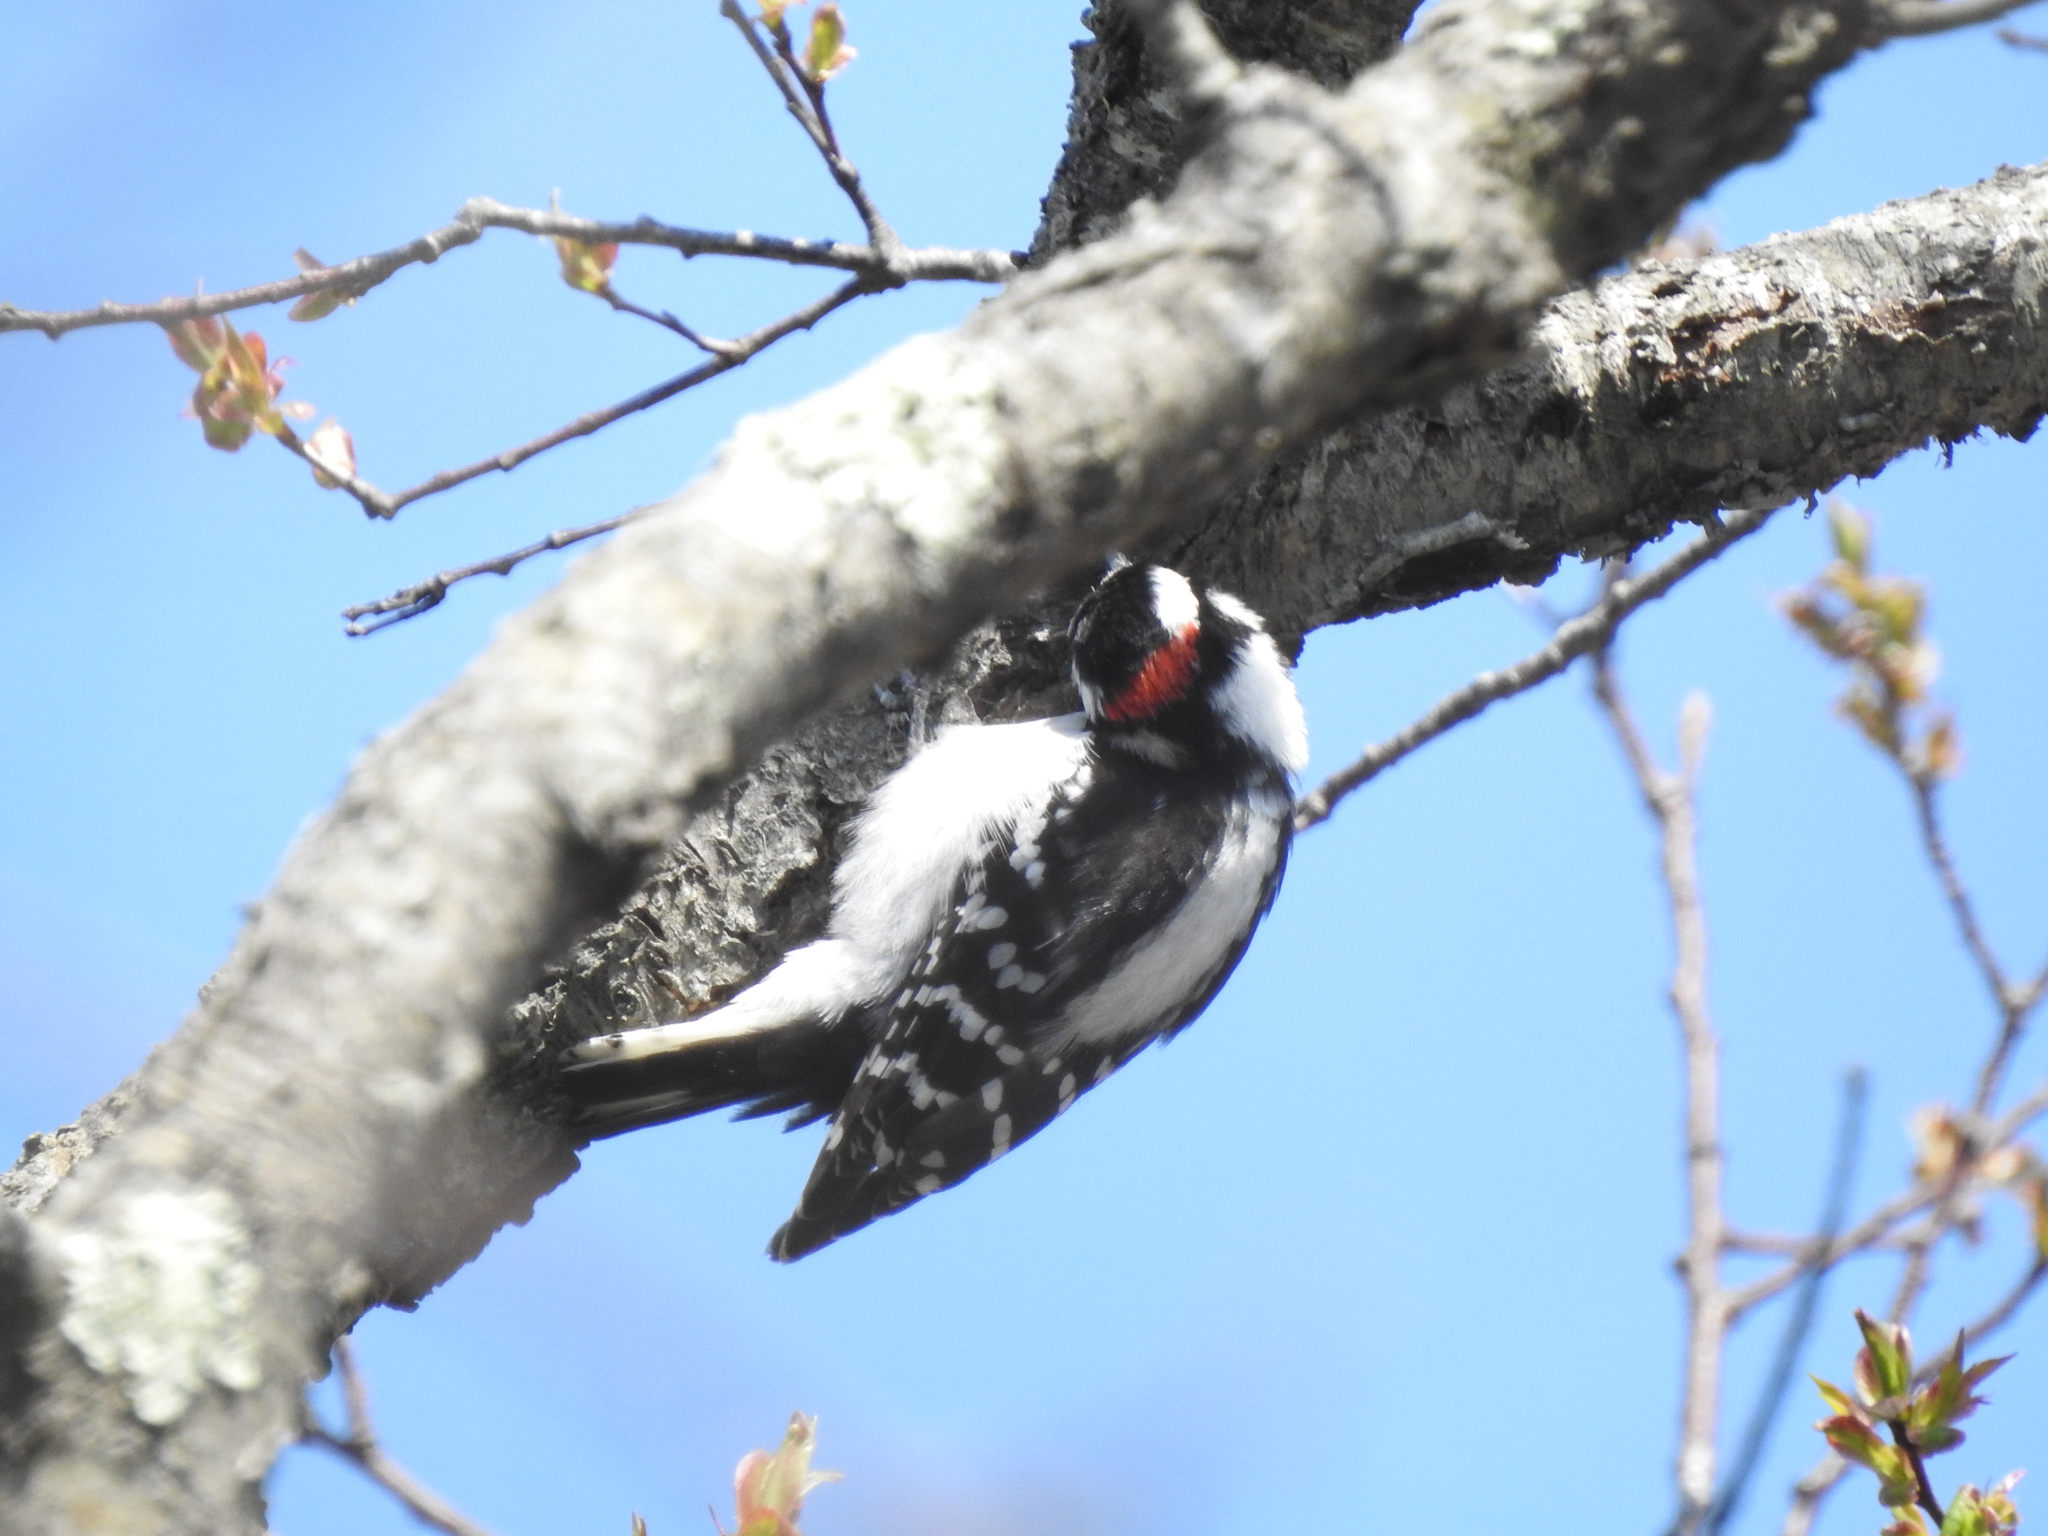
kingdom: Animalia
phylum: Chordata
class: Aves
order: Piciformes
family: Picidae
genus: Dryobates
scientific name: Dryobates pubescens
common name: Downy woodpecker
